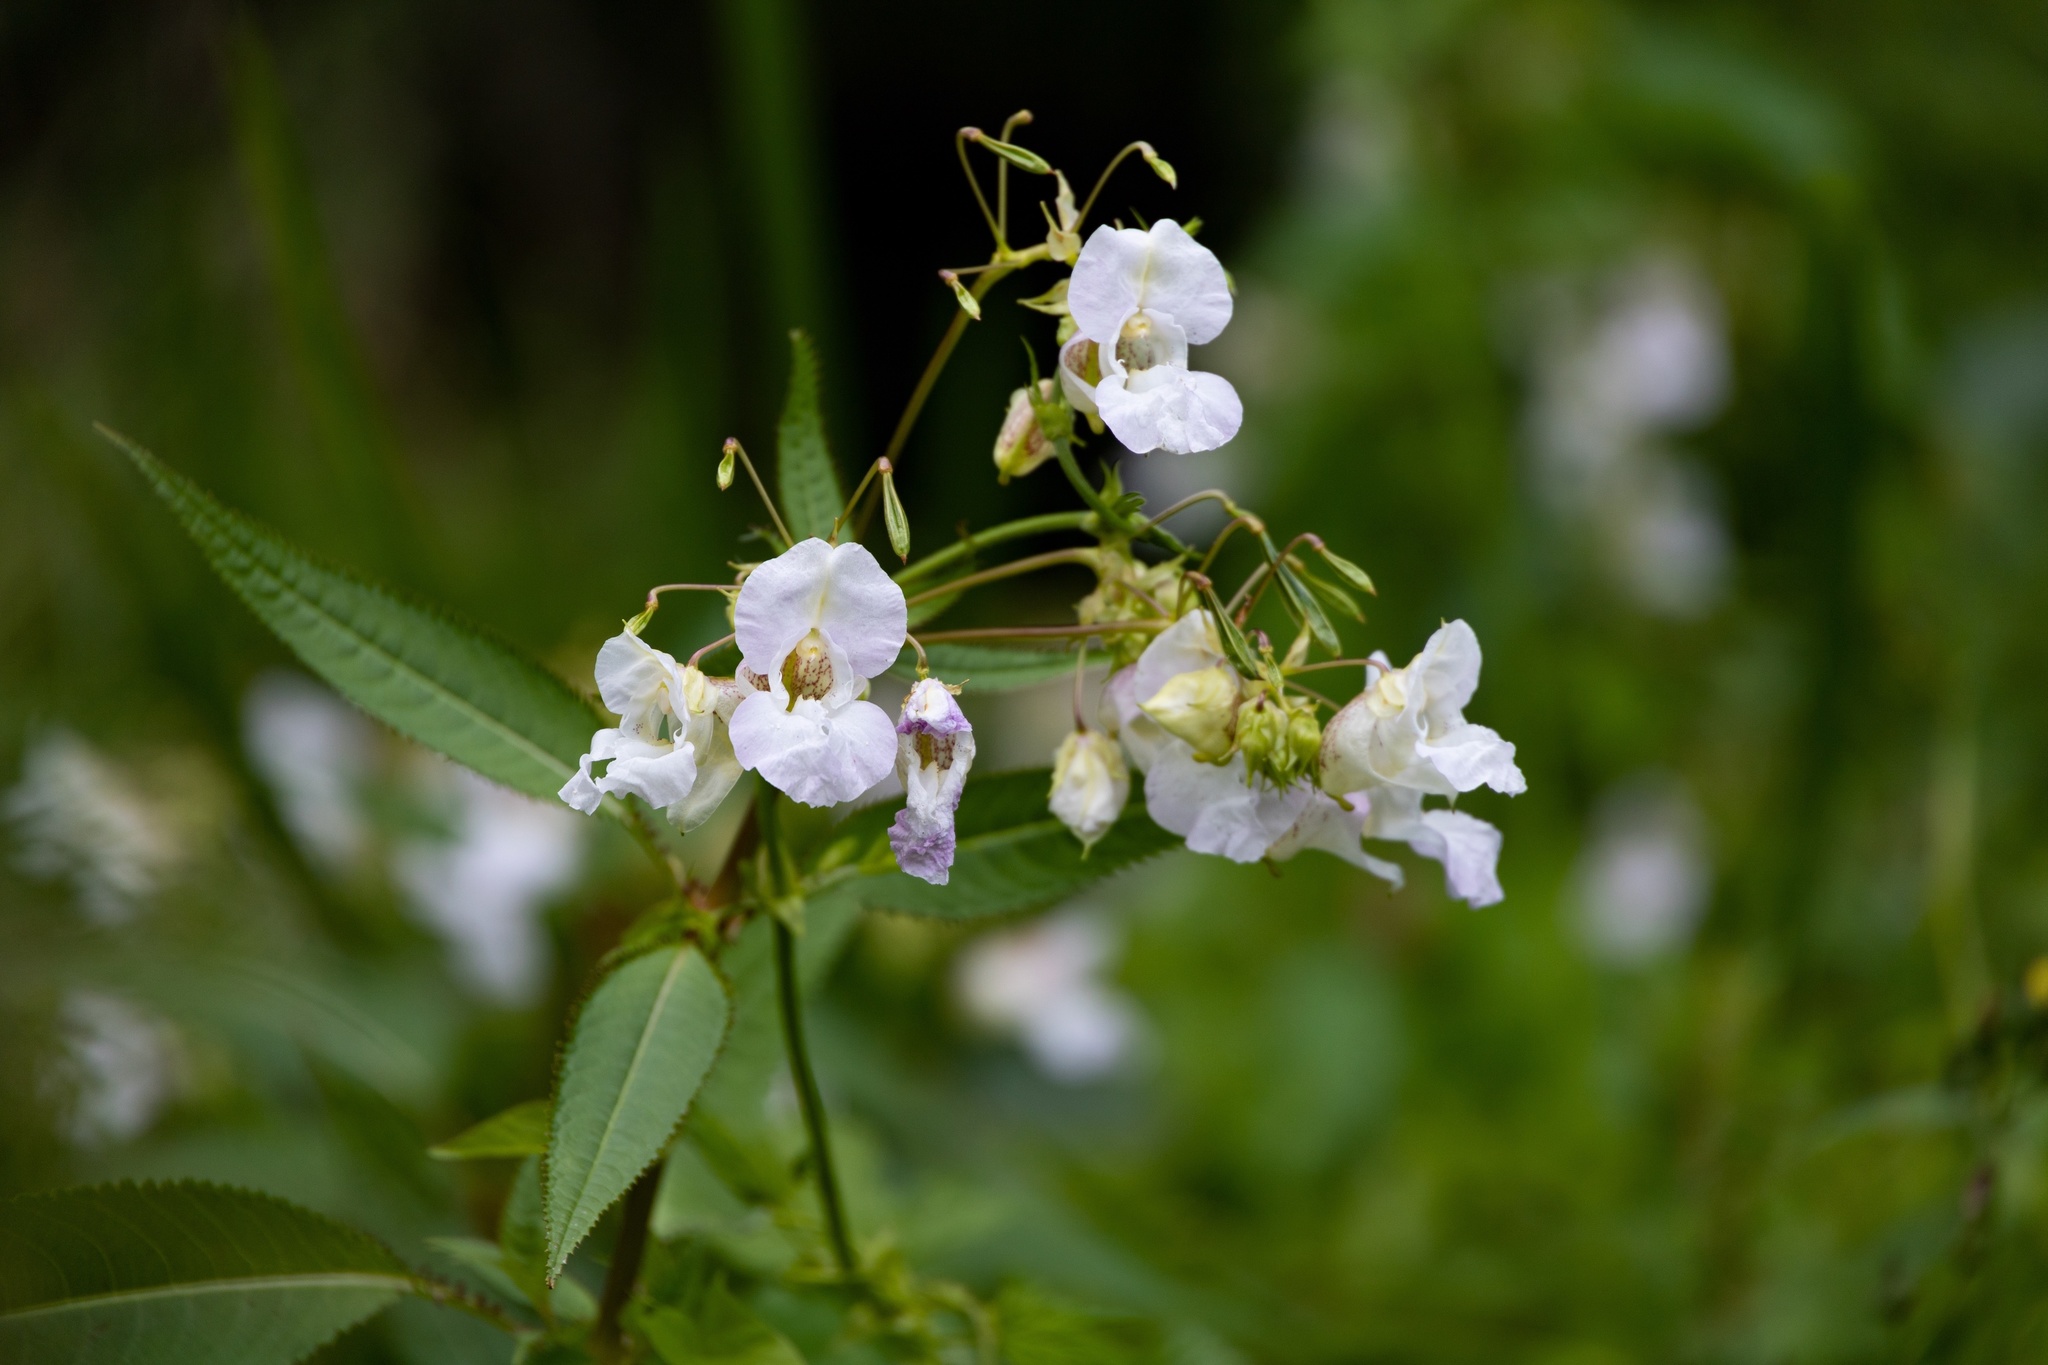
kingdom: Plantae
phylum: Tracheophyta
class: Magnoliopsida
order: Ericales
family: Balsaminaceae
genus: Impatiens
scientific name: Impatiens glandulifera
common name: Himalayan balsam
